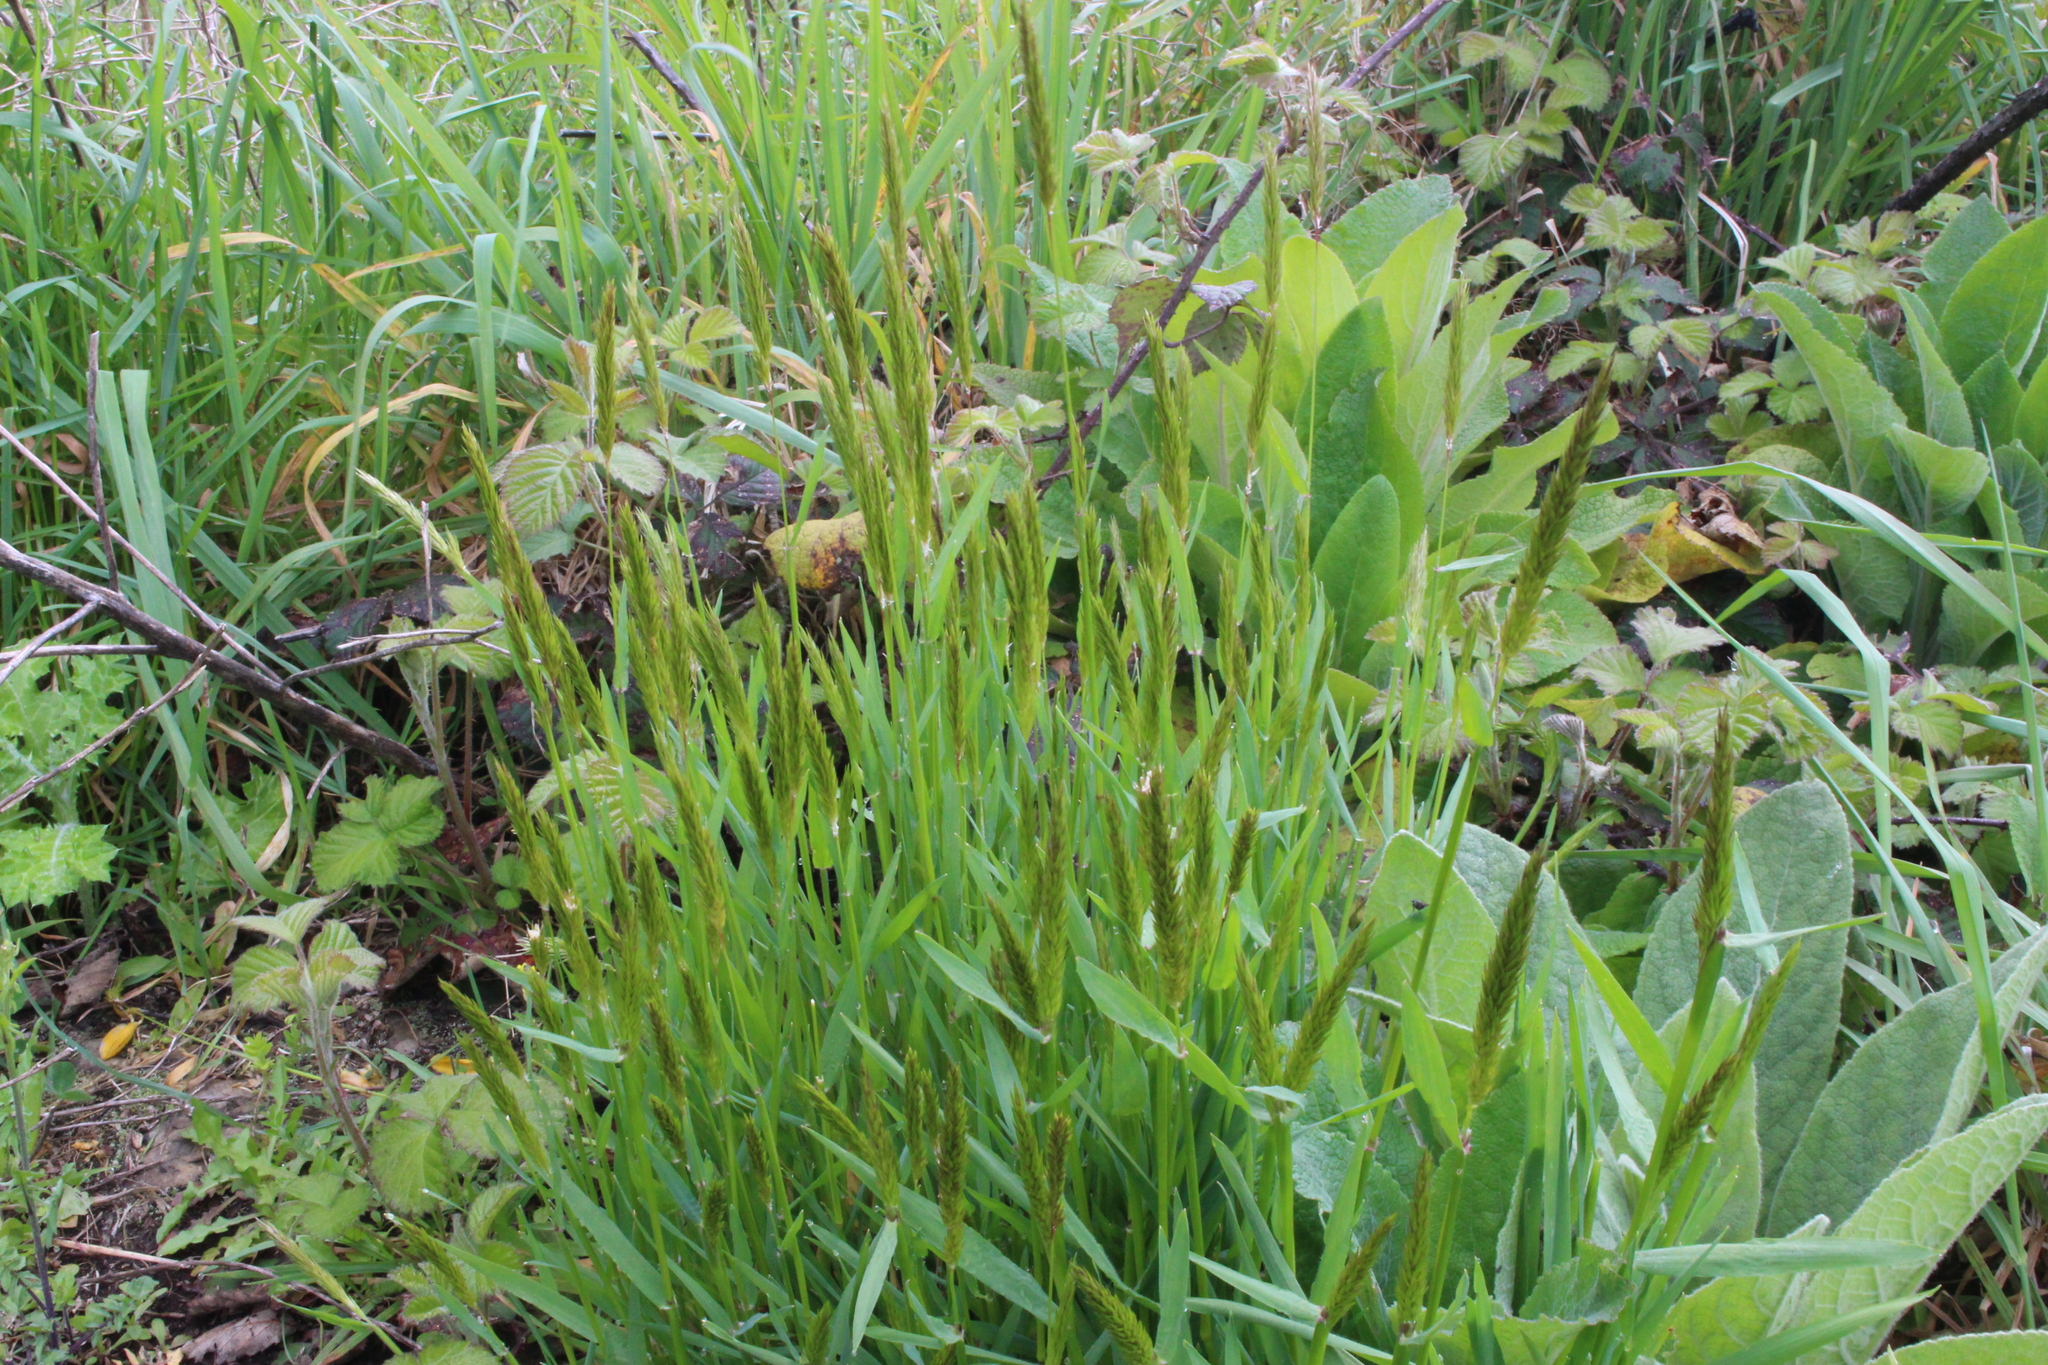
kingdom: Plantae
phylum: Tracheophyta
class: Liliopsida
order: Poales
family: Poaceae
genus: Anthoxanthum
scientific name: Anthoxanthum odoratum
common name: Sweet vernalgrass
